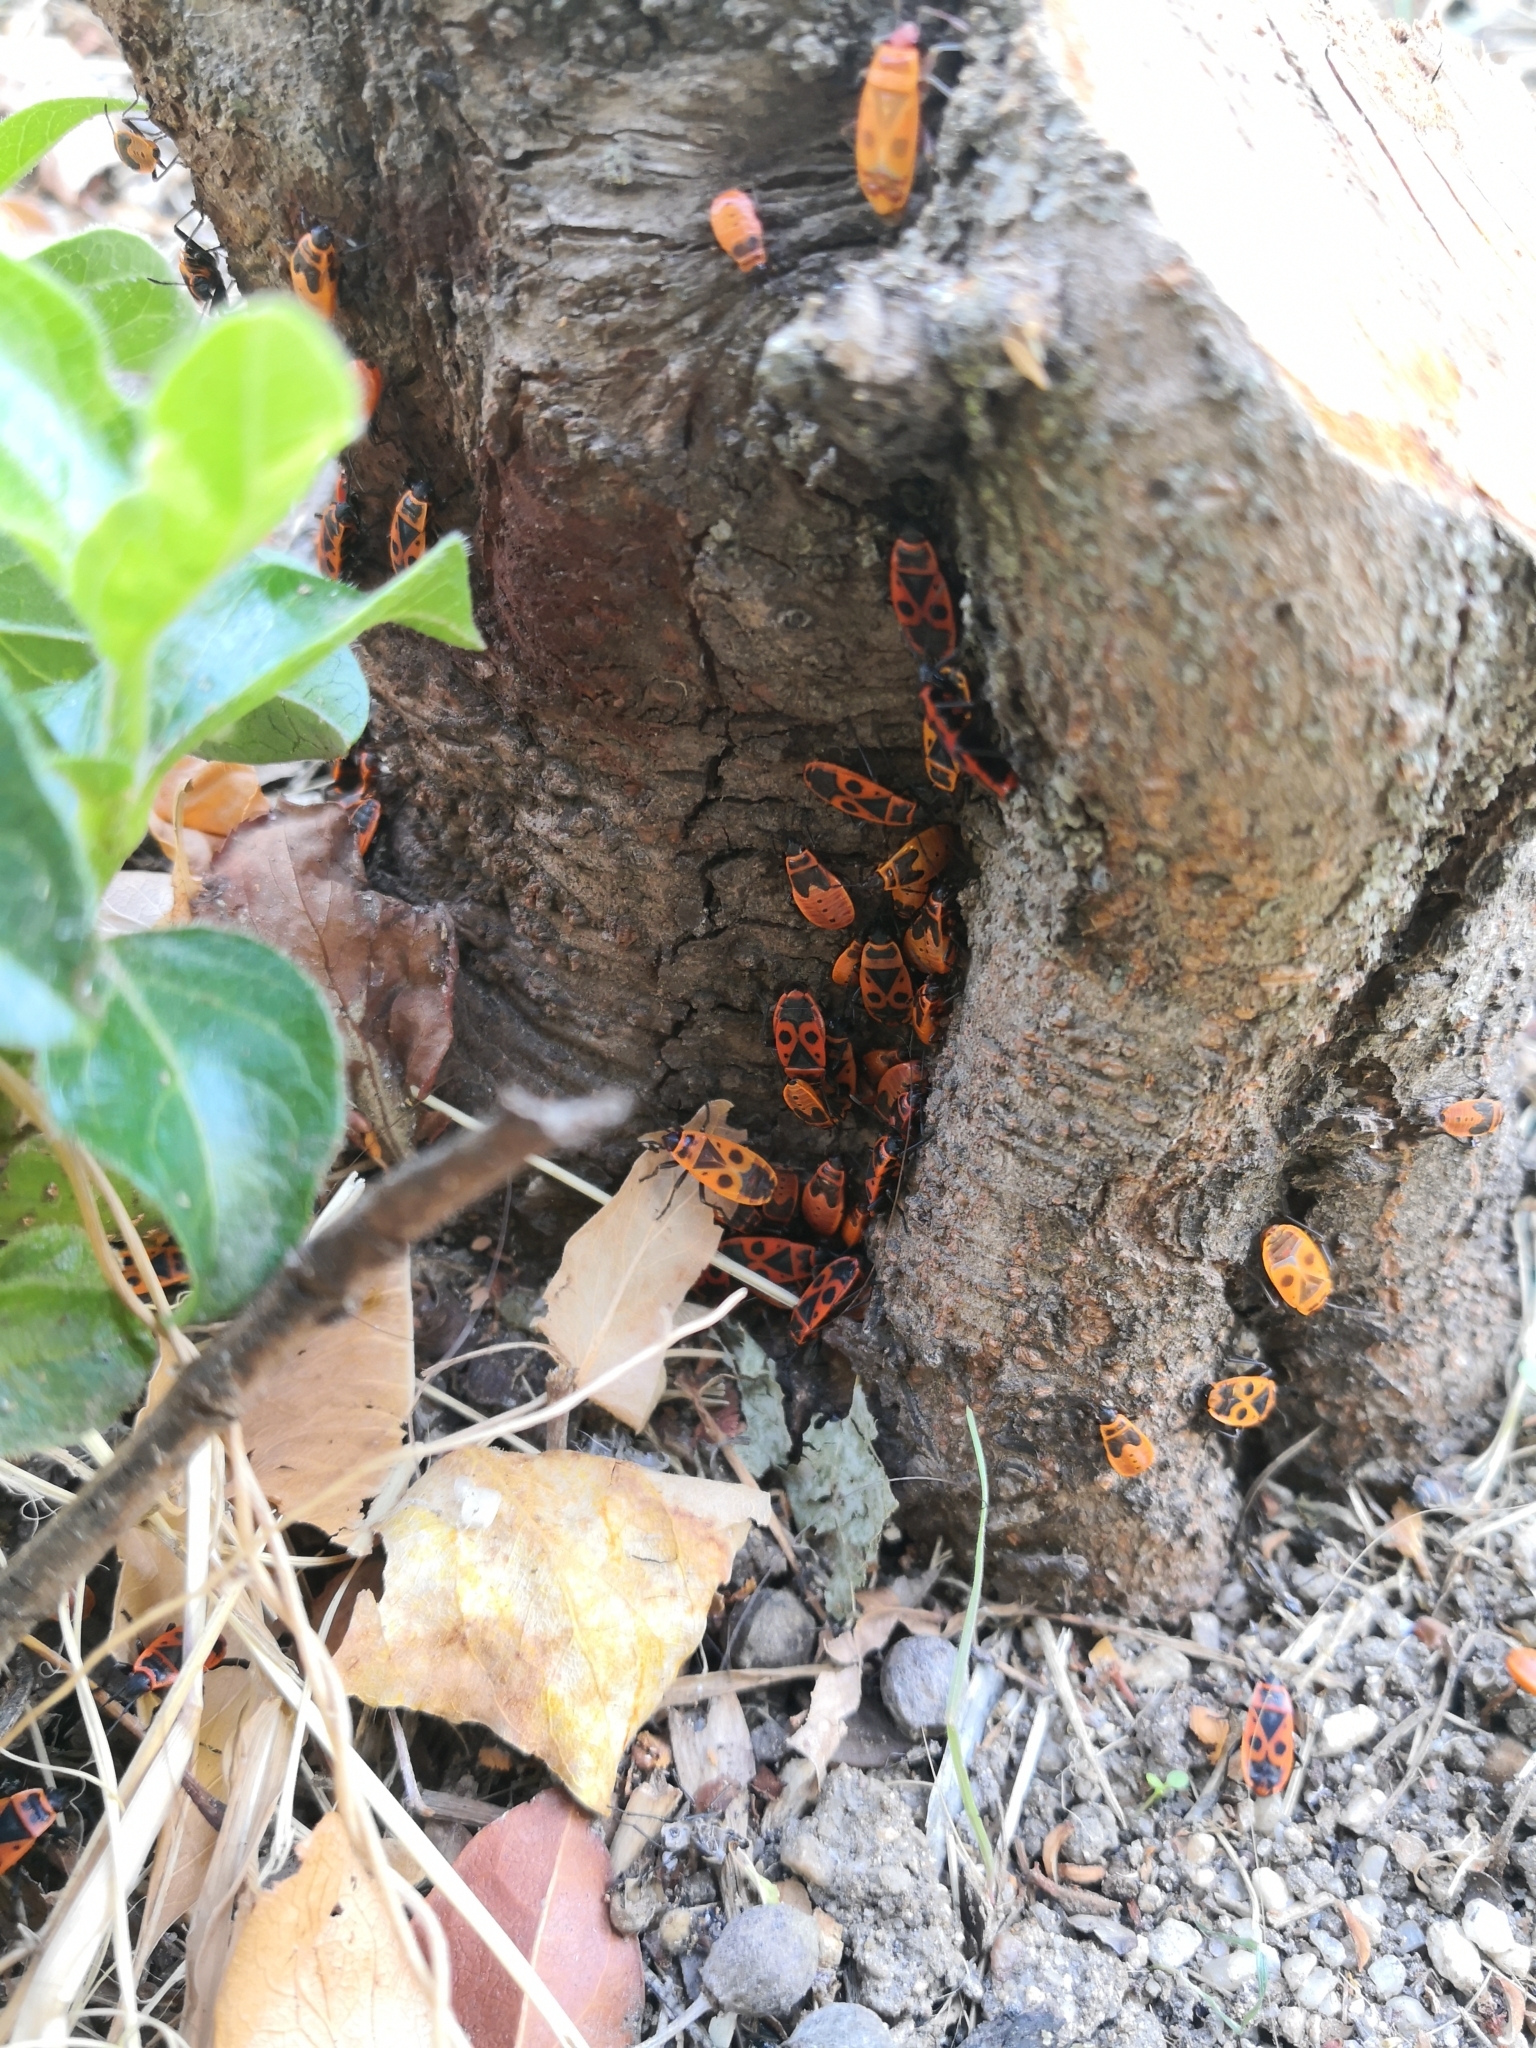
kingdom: Animalia
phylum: Arthropoda
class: Insecta
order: Hemiptera
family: Pyrrhocoridae
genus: Pyrrhocoris
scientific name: Pyrrhocoris apterus
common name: Firebug
